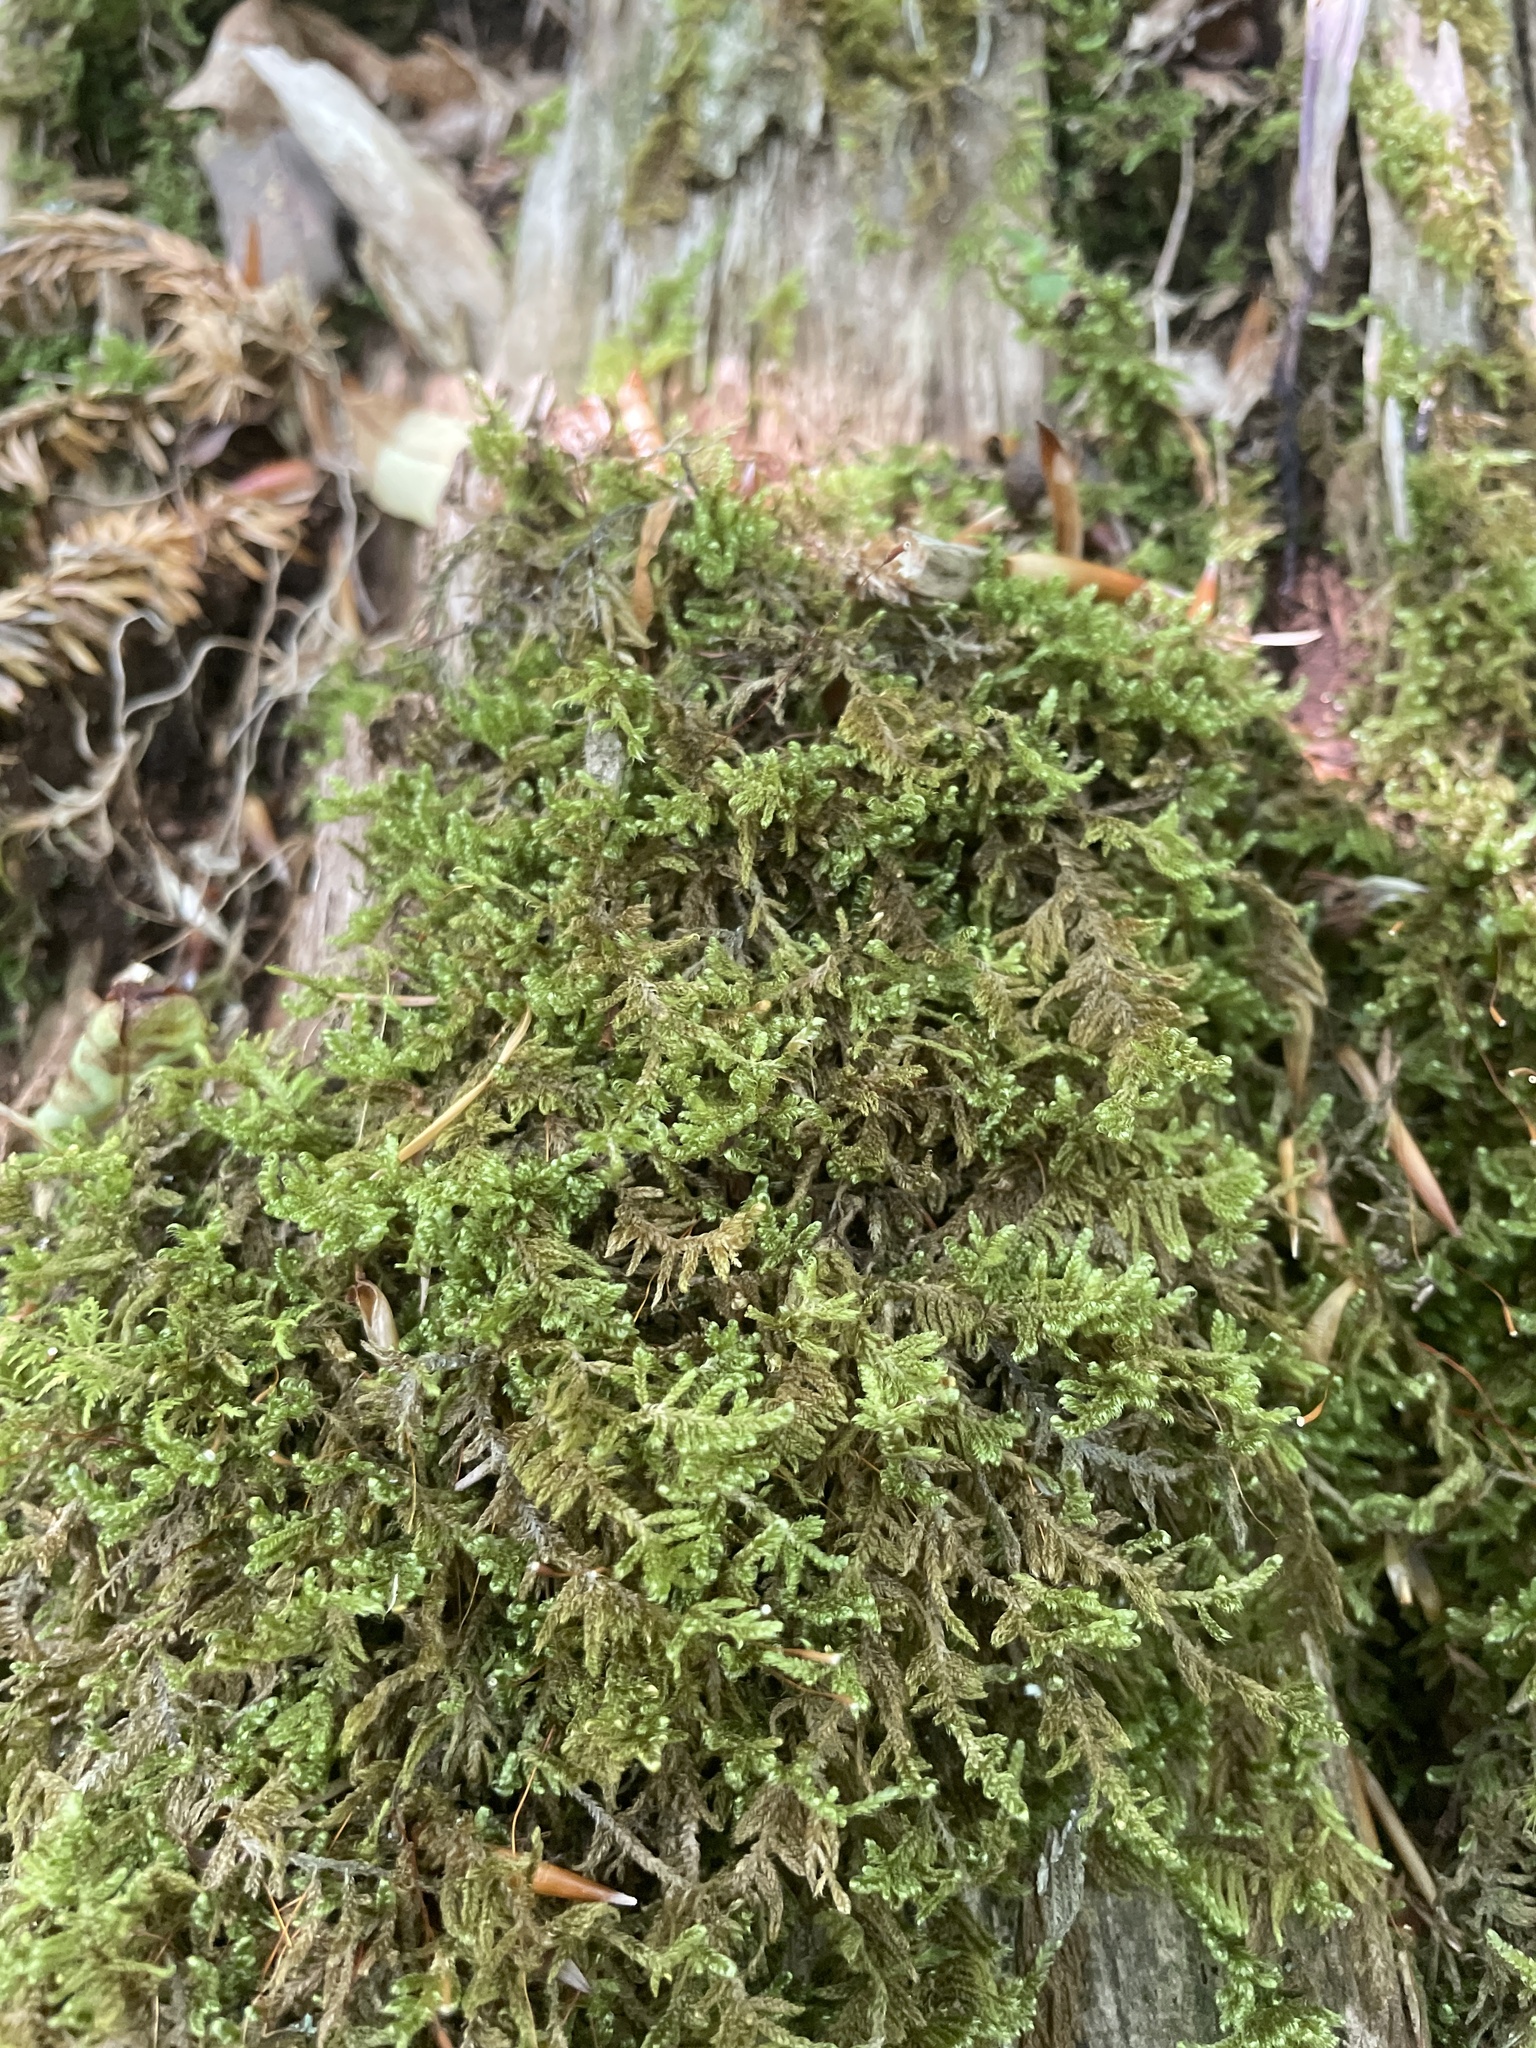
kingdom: Plantae
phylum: Bryophyta
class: Bryopsida
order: Hypnales
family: Callicladiaceae
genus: Callicladium
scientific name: Callicladium imponens
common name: Brocade moss
